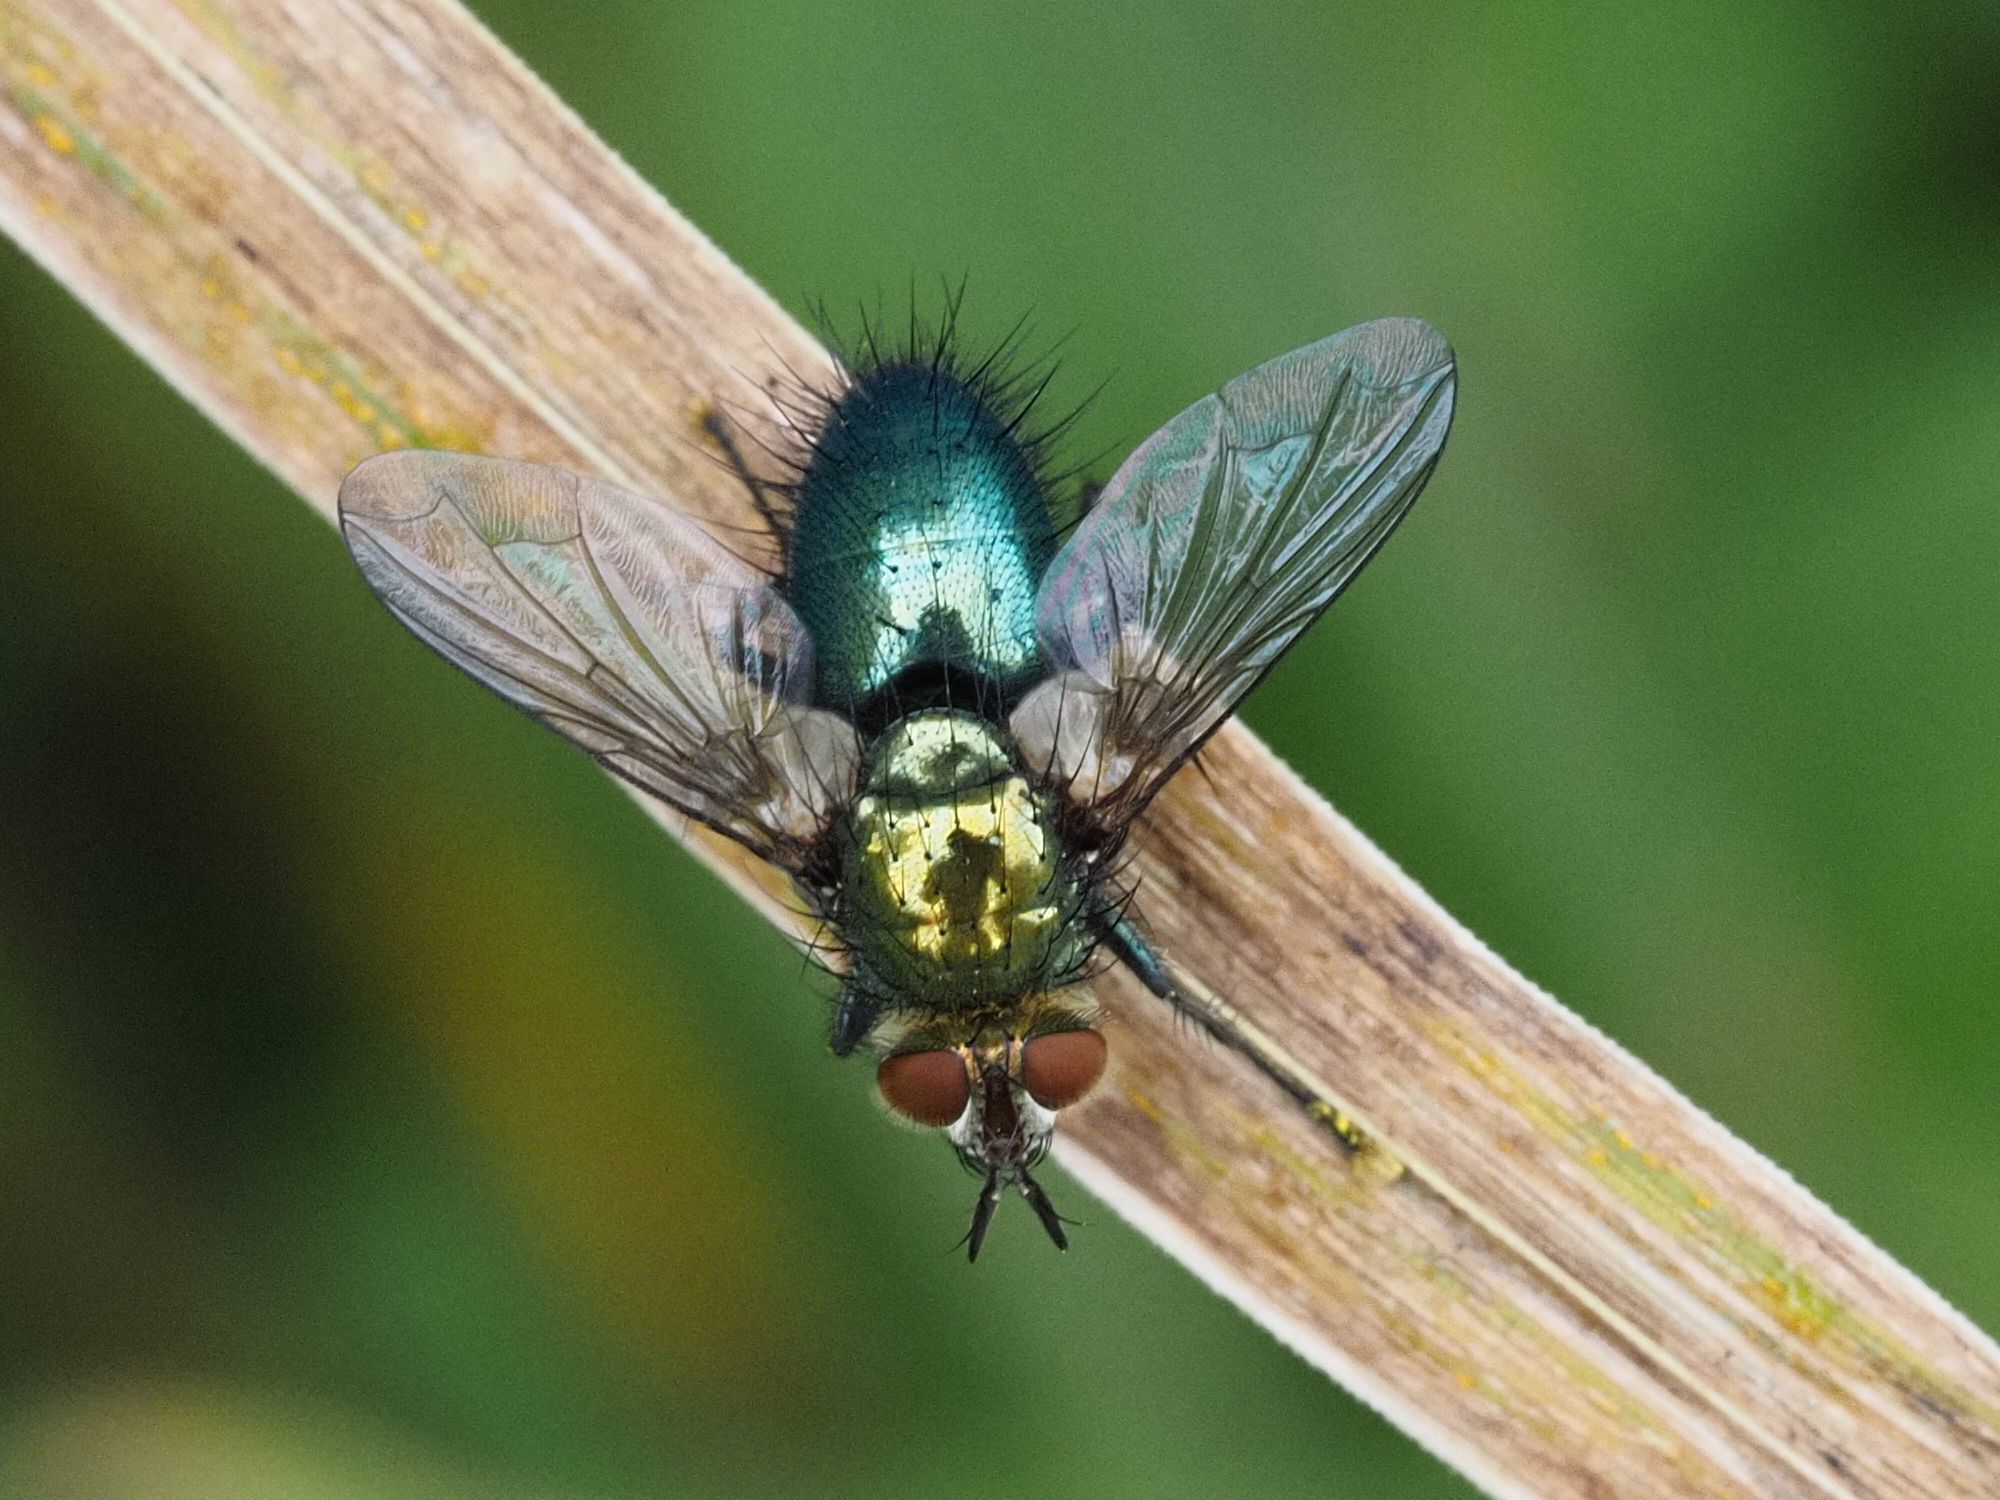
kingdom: Animalia
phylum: Arthropoda
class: Insecta
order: Diptera
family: Tachinidae
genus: Chrysosomopsis
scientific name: Chrysosomopsis
